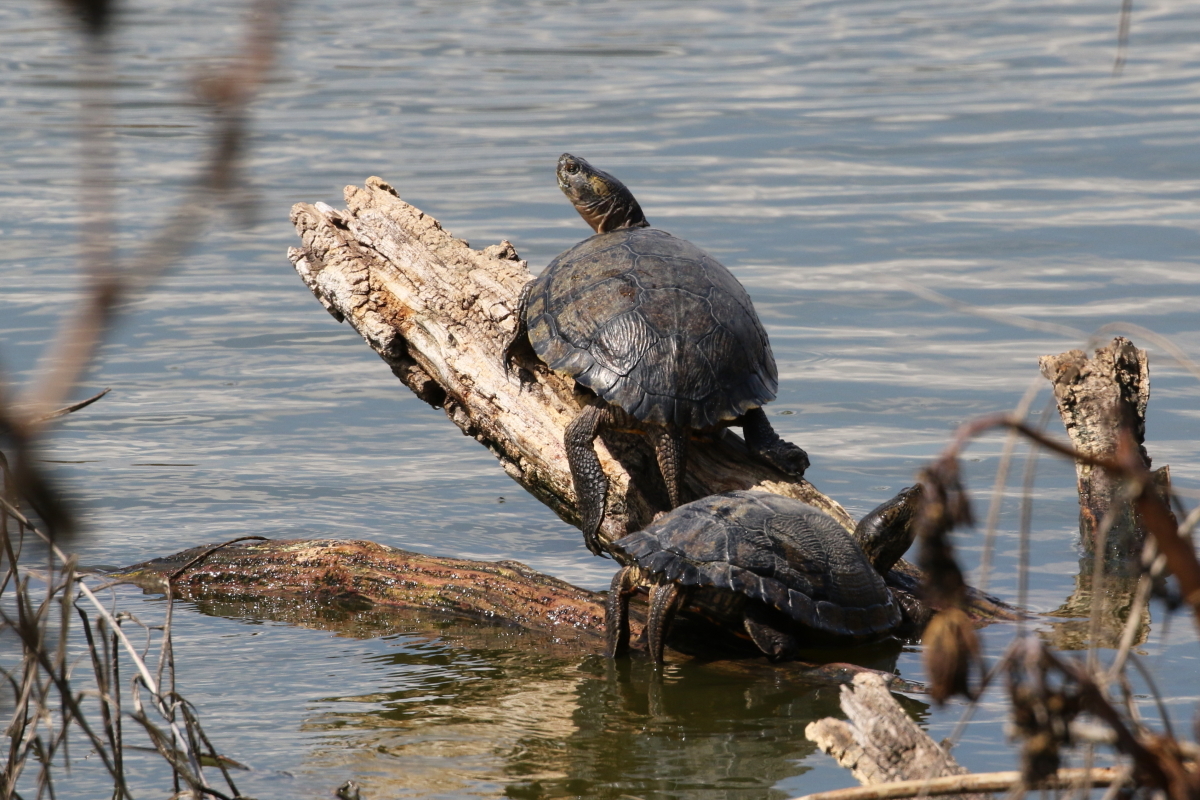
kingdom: Animalia
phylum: Chordata
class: Testudines
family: Emydidae
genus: Trachemys
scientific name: Trachemys scripta
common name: Slider
